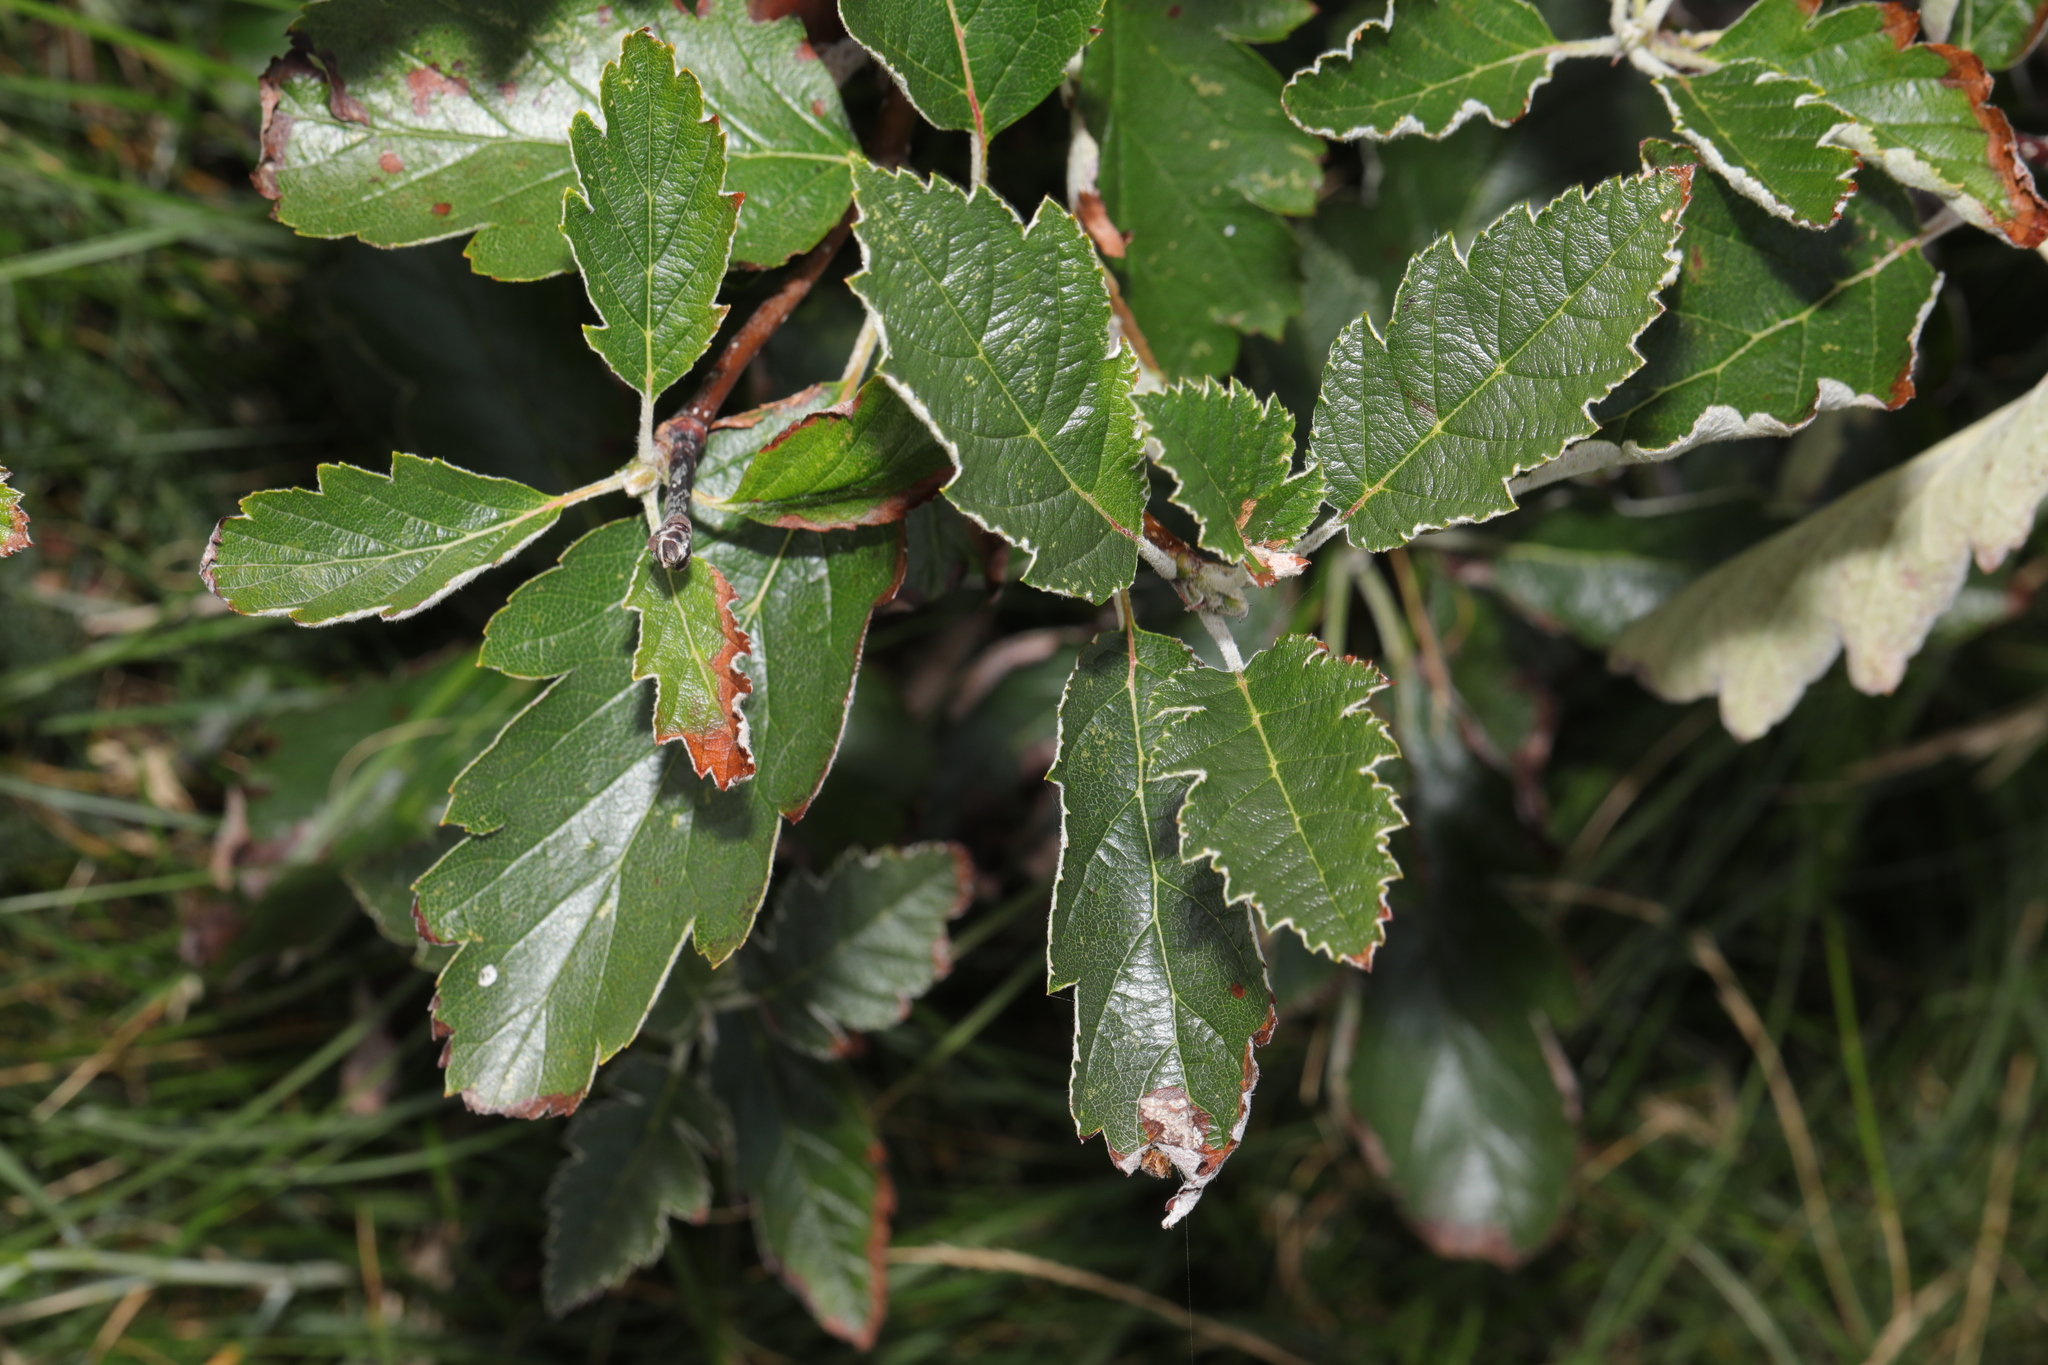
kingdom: Plantae
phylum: Tracheophyta
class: Magnoliopsida
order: Rosales
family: Rosaceae
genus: Scandosorbus
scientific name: Scandosorbus intermedia
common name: Swedish whitebeam
